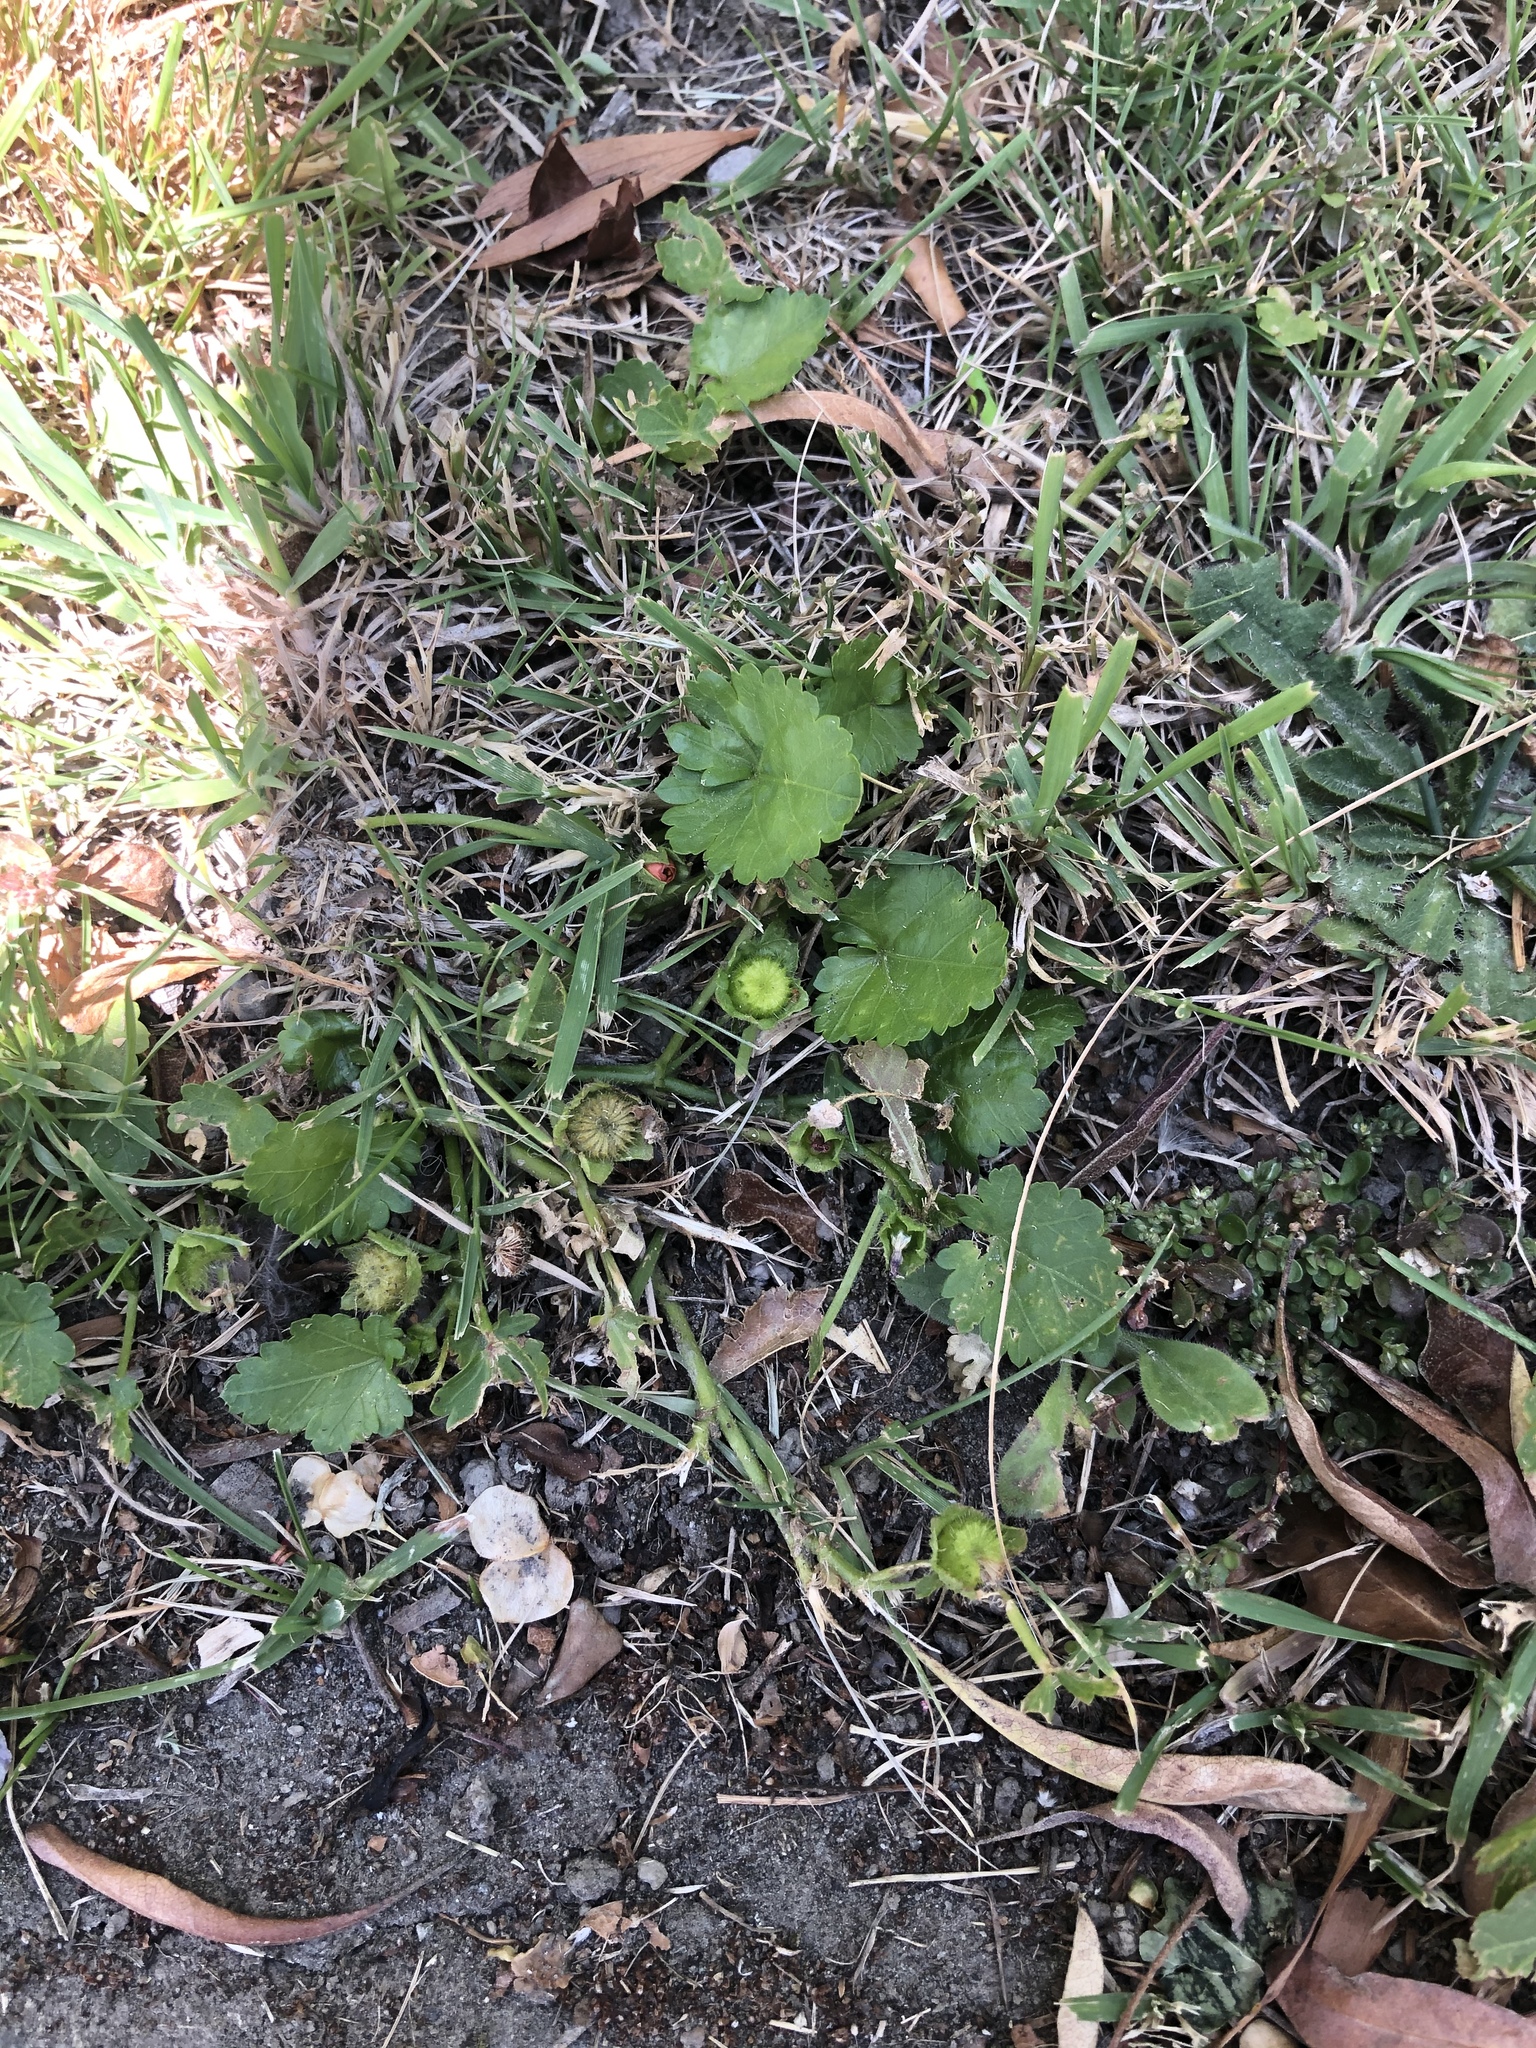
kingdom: Plantae
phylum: Tracheophyta
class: Magnoliopsida
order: Malvales
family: Malvaceae
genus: Modiola
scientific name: Modiola caroliniana
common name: Carolina bristlemallow
